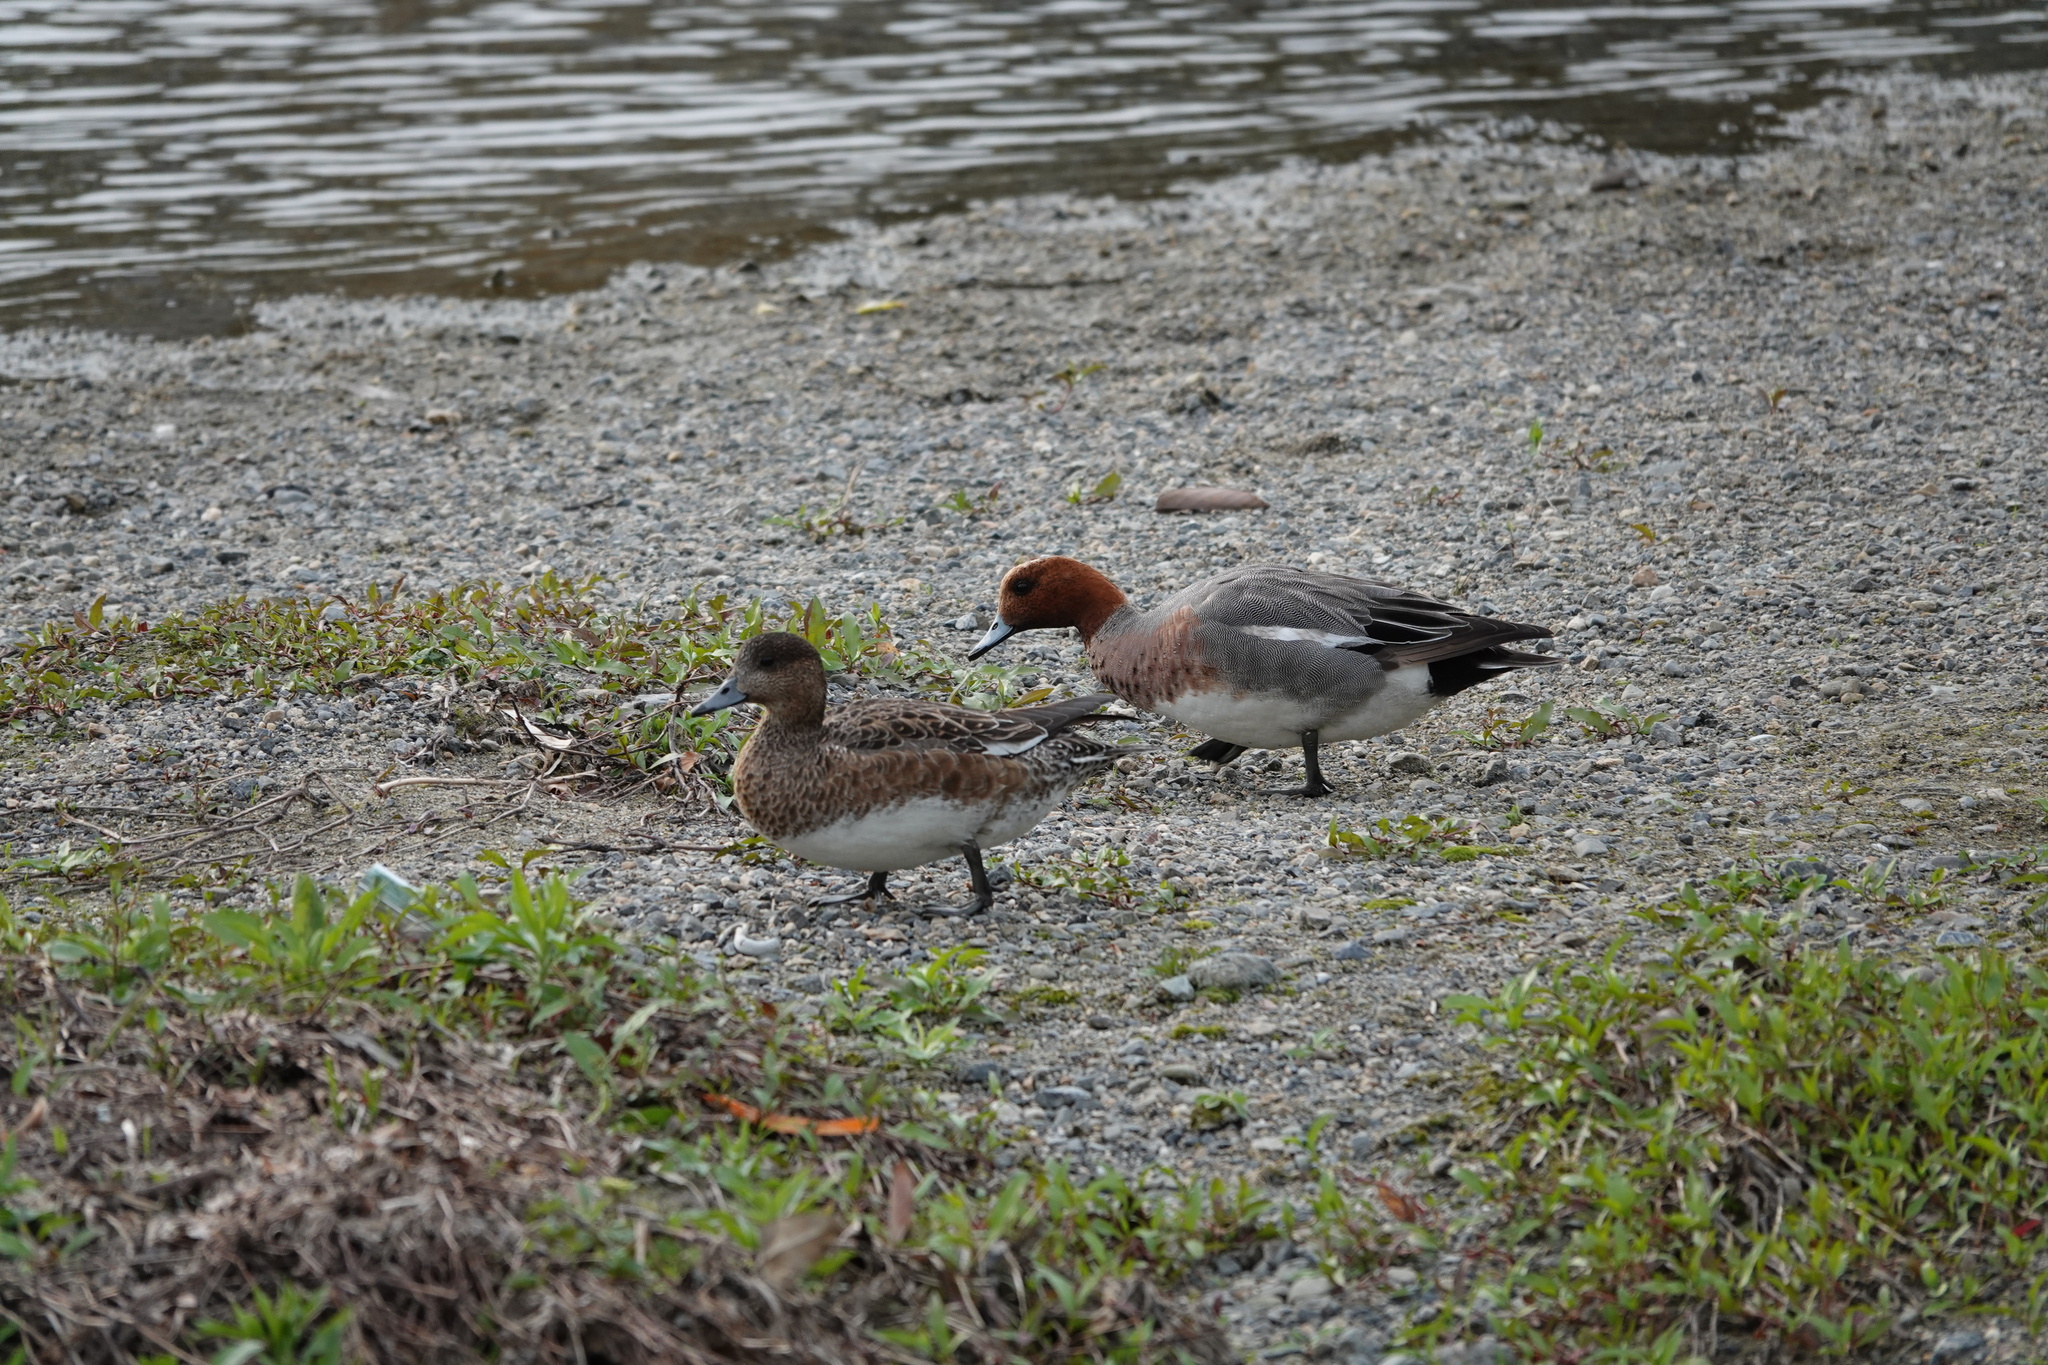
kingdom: Animalia
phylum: Chordata
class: Aves
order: Anseriformes
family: Anatidae
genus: Mareca
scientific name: Mareca penelope
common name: Eurasian wigeon
